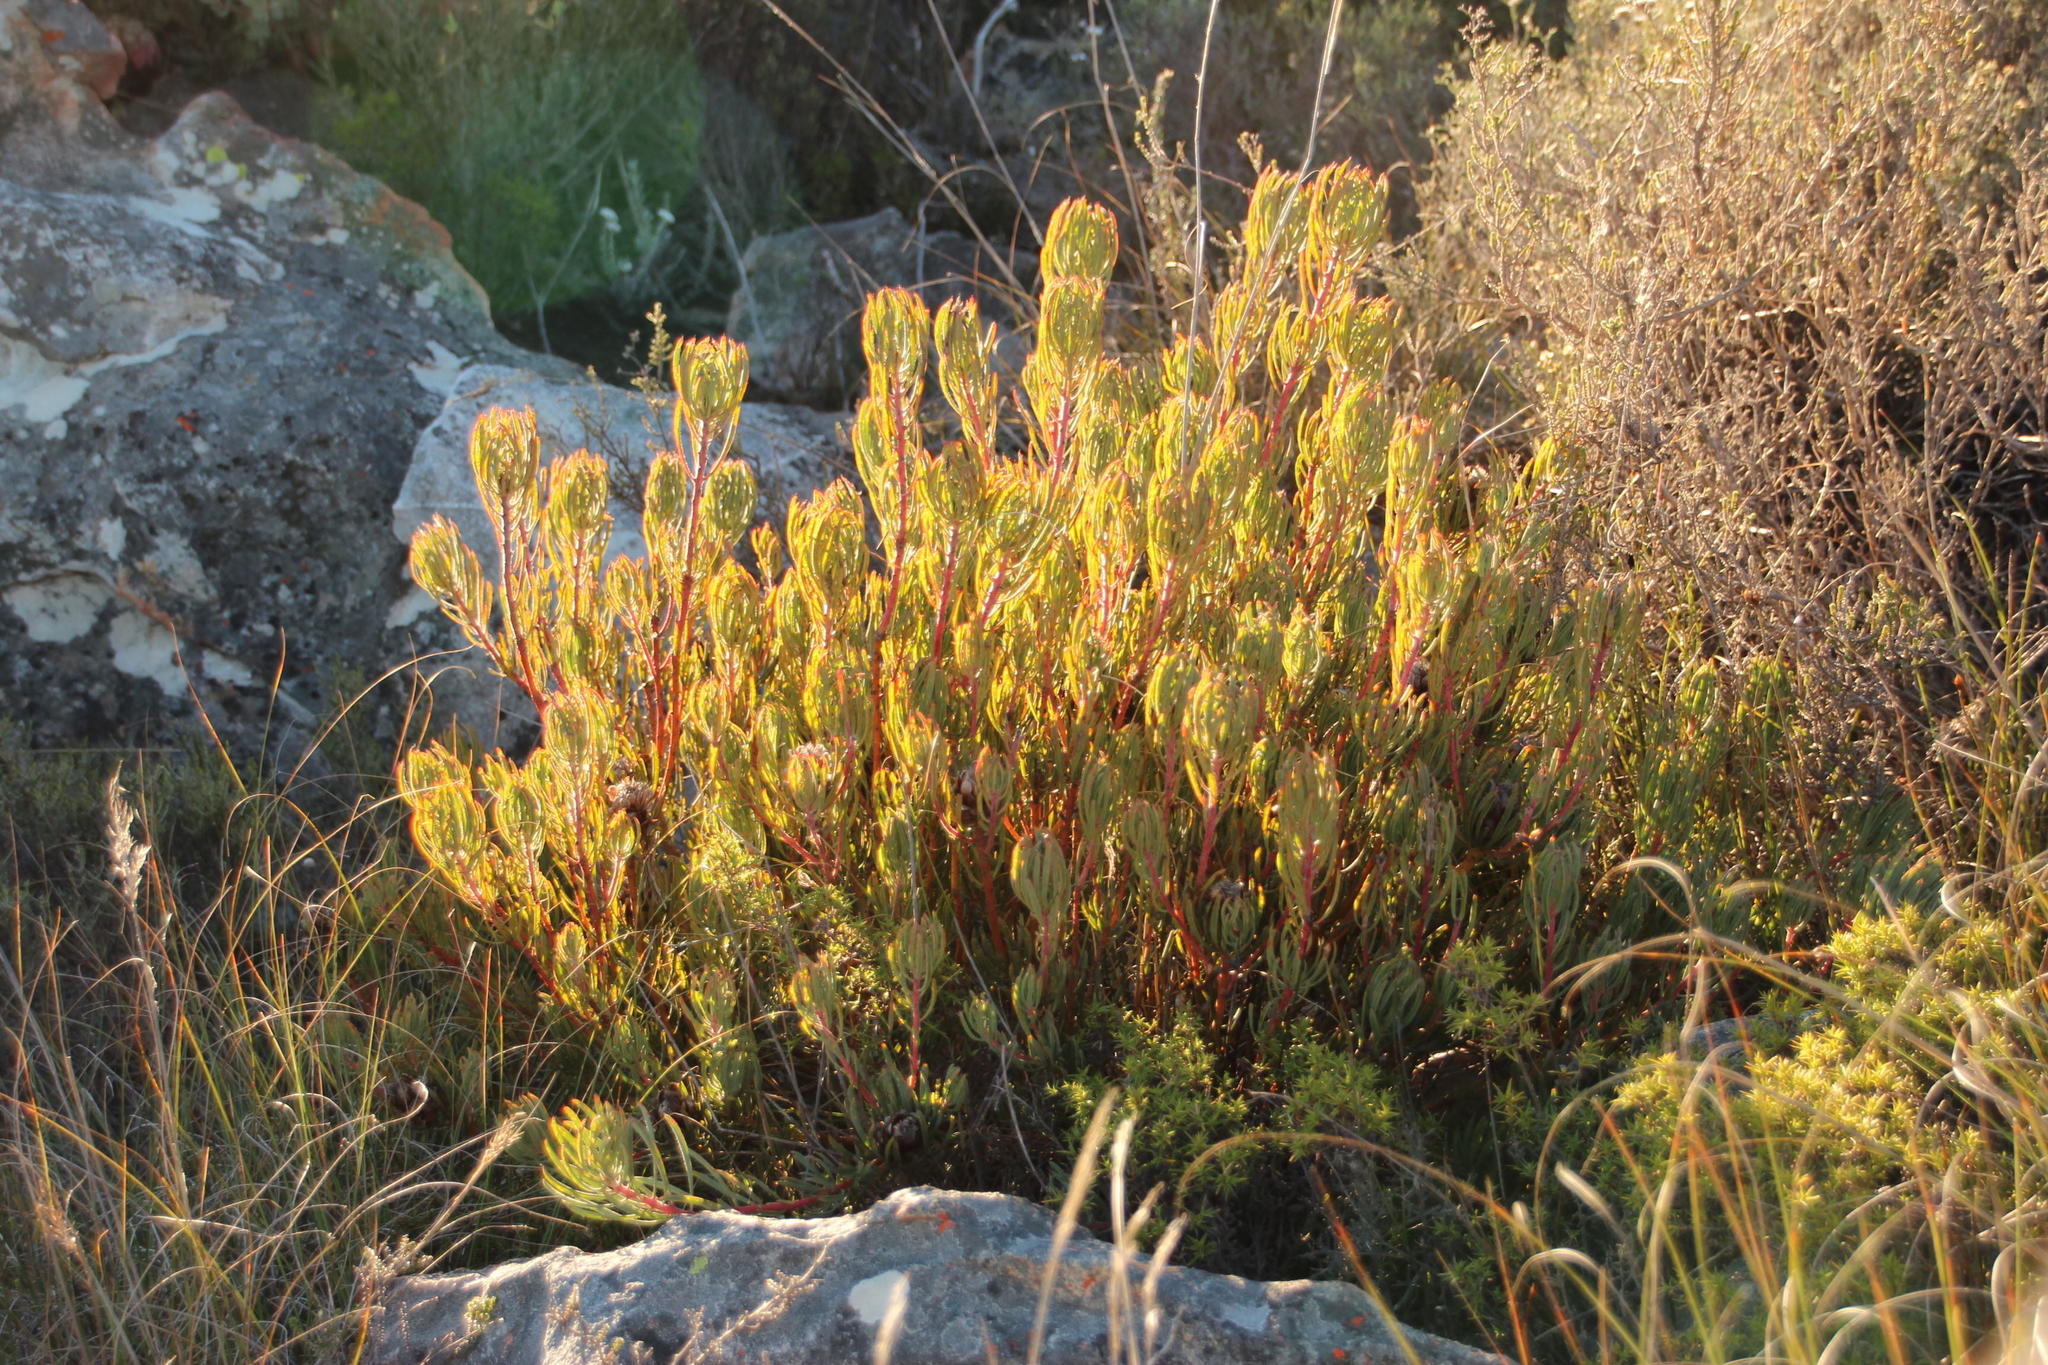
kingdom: Plantae
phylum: Tracheophyta
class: Magnoliopsida
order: Proteales
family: Proteaceae
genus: Protea
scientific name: Protea canaliculata
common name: Groove-leaf sugarbush
